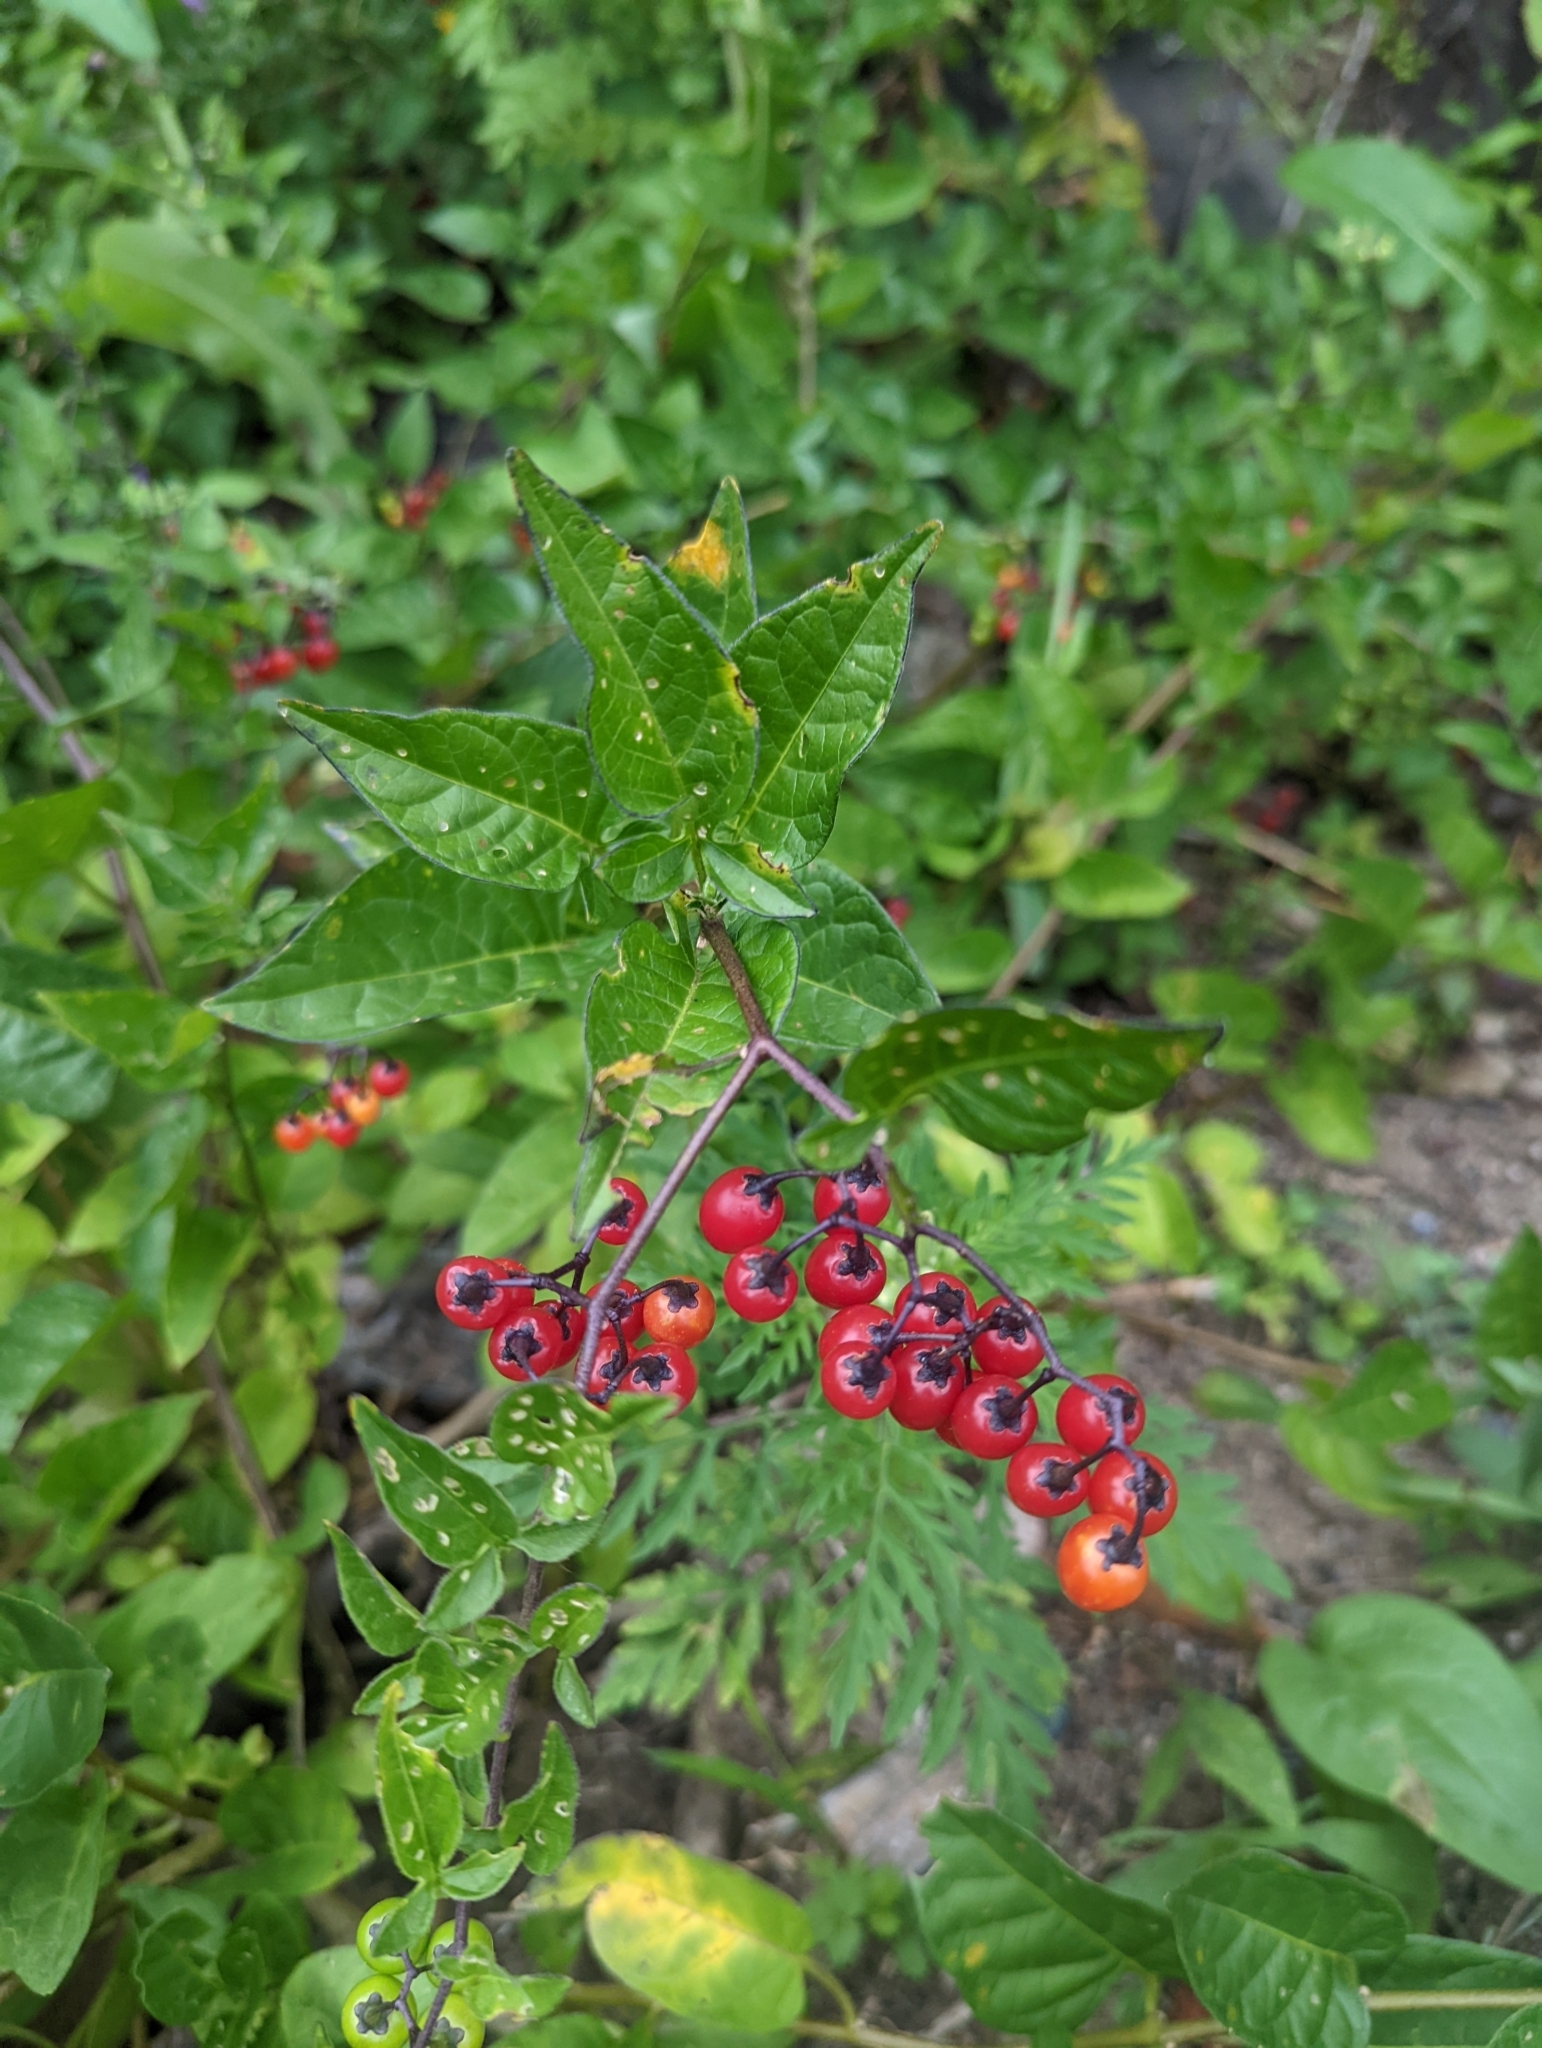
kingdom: Plantae
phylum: Tracheophyta
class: Magnoliopsida
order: Solanales
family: Solanaceae
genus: Solanum
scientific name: Solanum dulcamara
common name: Climbing nightshade
